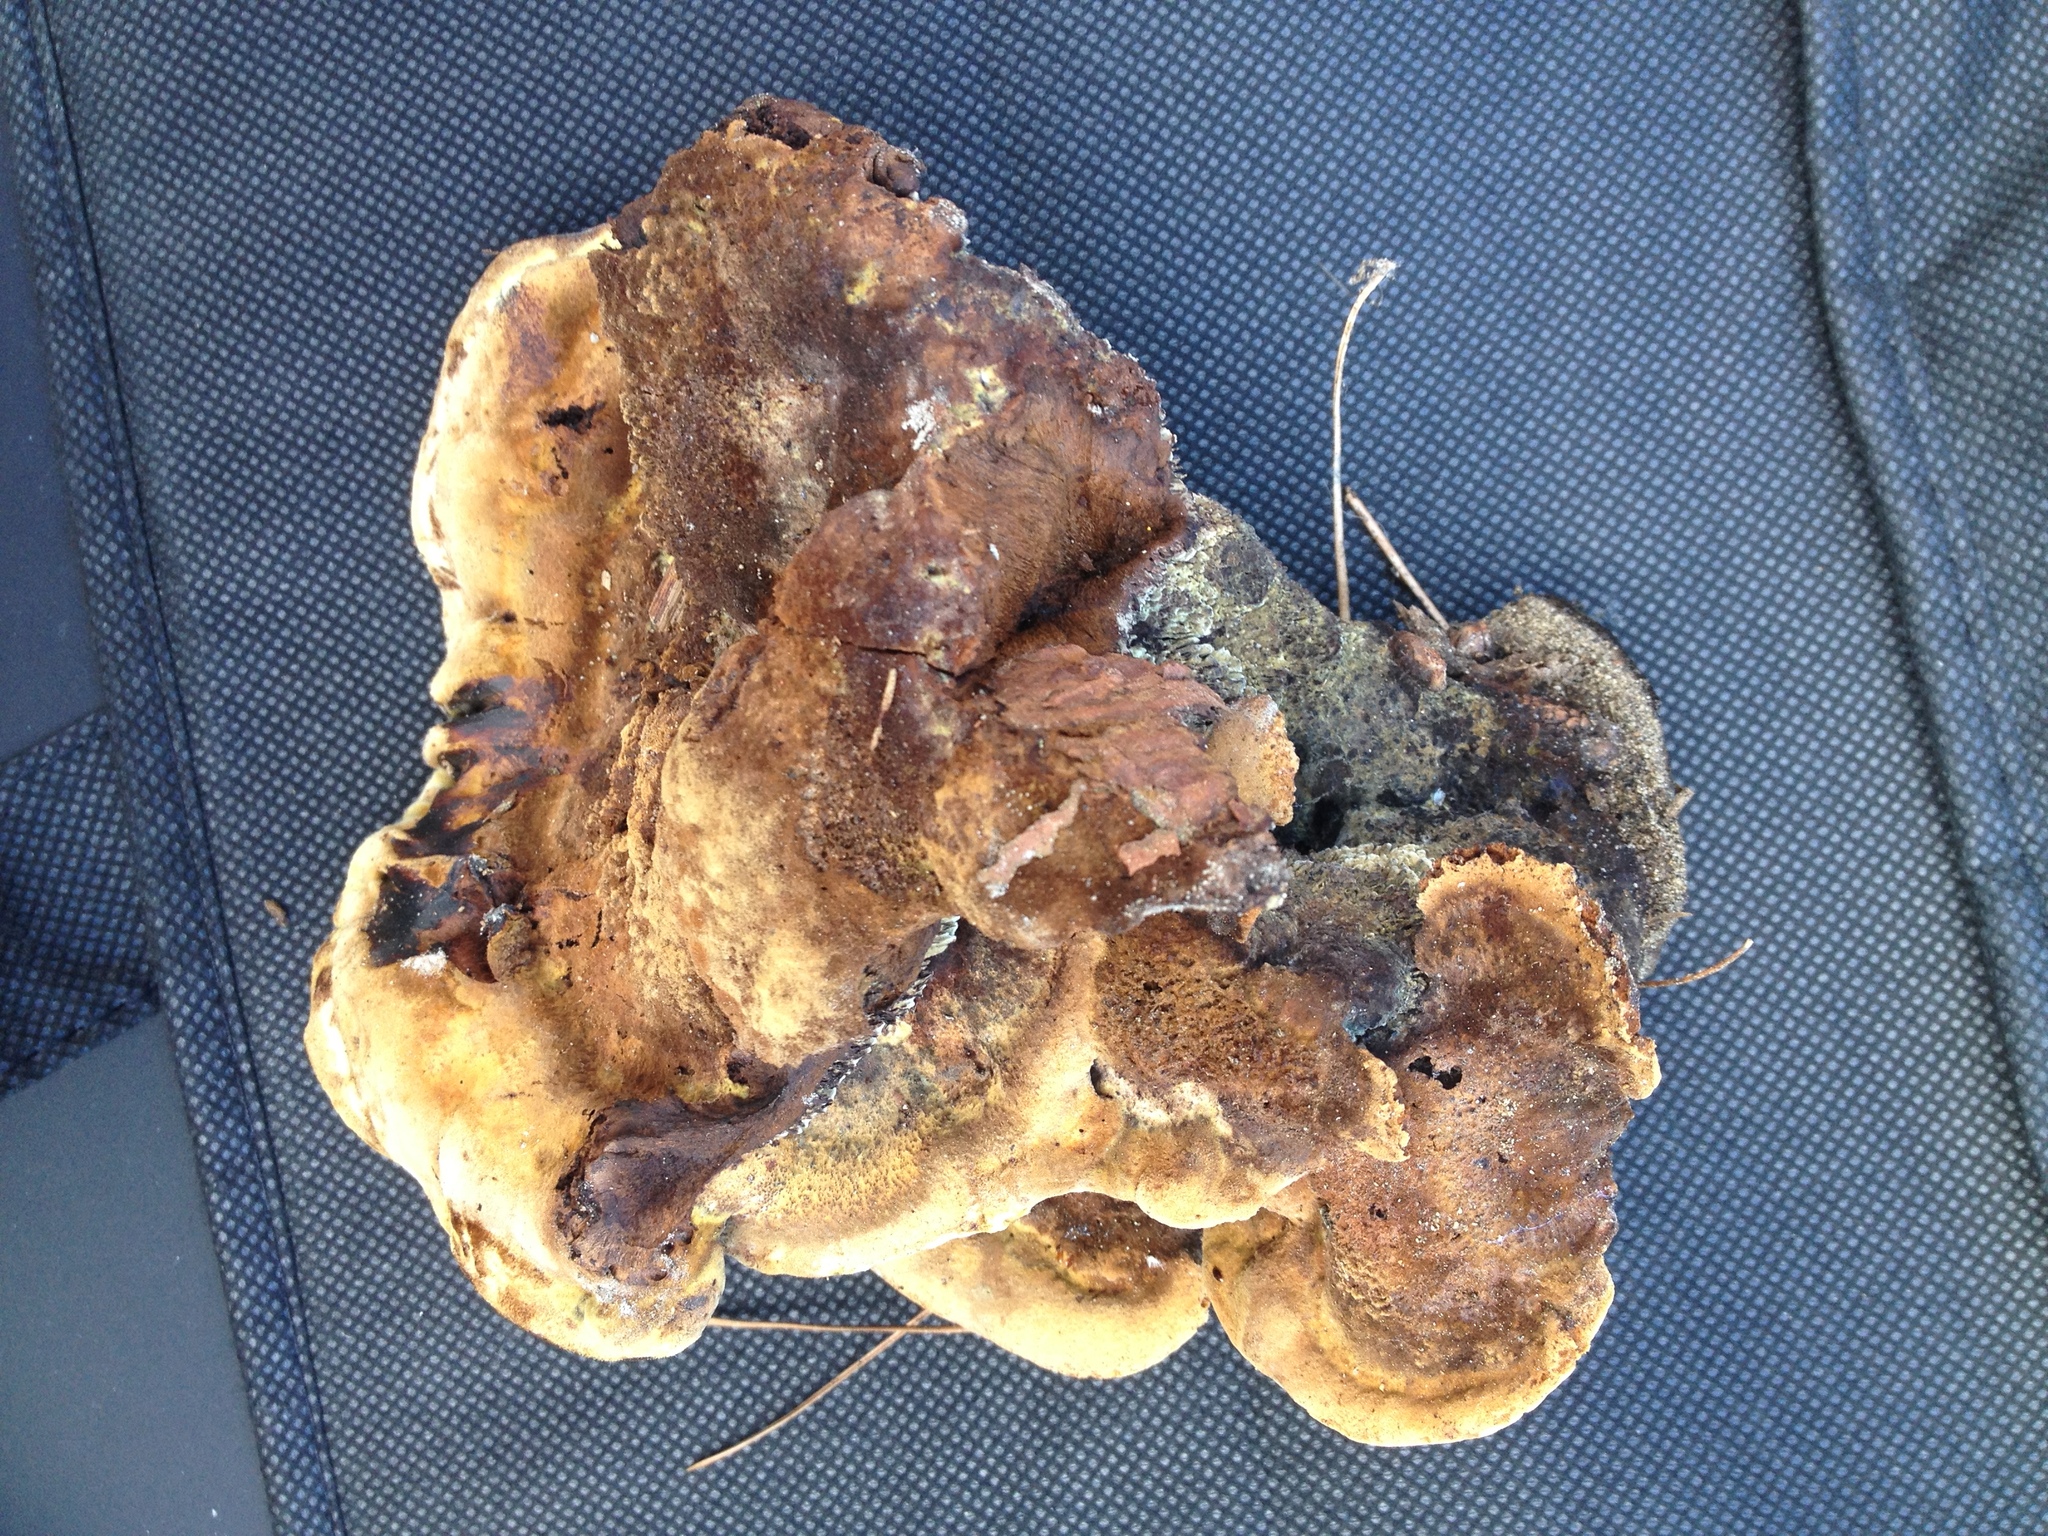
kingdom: Fungi
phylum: Basidiomycota
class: Agaricomycetes
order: Polyporales
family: Laetiporaceae
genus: Phaeolus
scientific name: Phaeolus schweinitzii
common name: Dyer's mazegill
